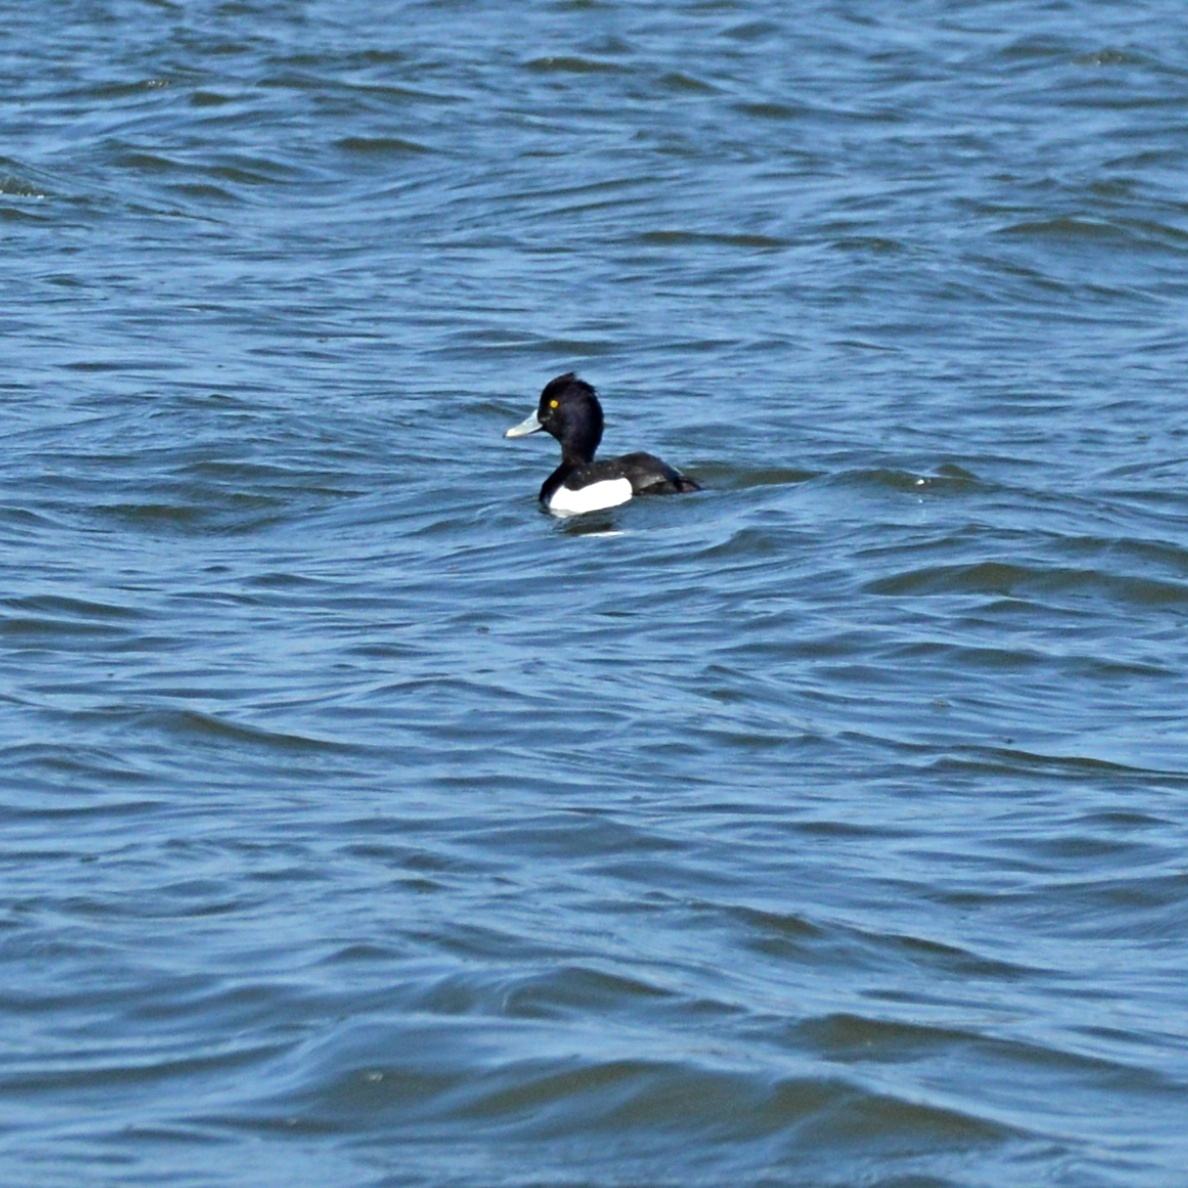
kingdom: Animalia
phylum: Chordata
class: Aves
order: Anseriformes
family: Anatidae
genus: Aythya
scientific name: Aythya fuligula
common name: Tufted duck
